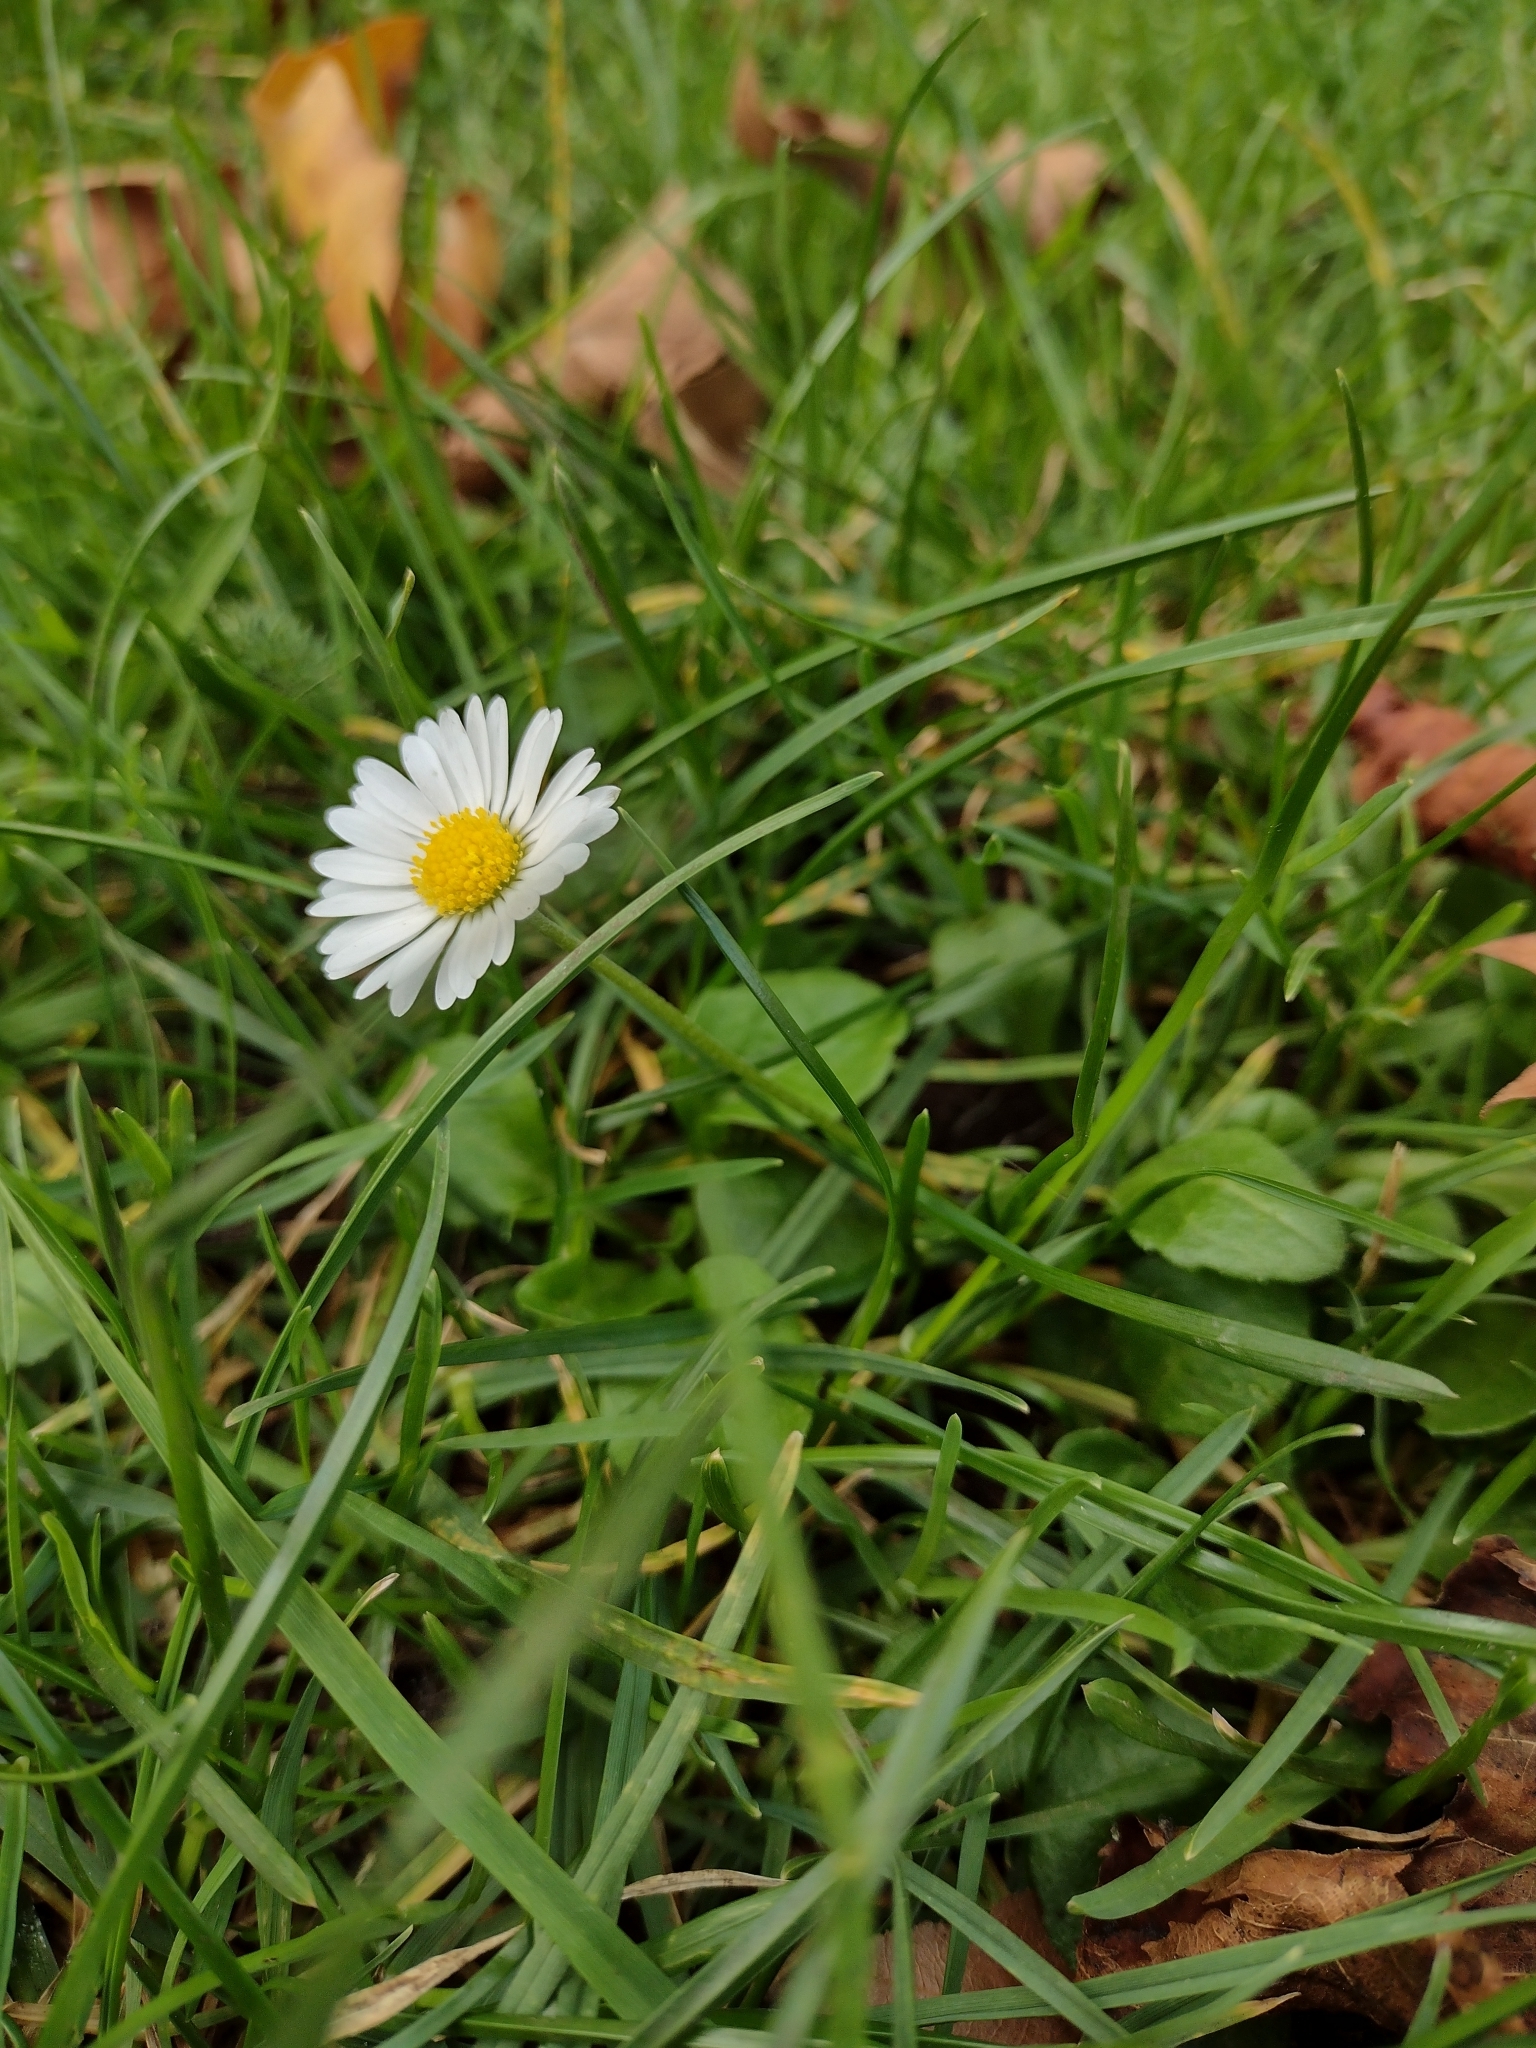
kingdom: Plantae
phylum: Tracheophyta
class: Magnoliopsida
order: Asterales
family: Asteraceae
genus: Bellis
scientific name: Bellis perennis
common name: Lawndaisy
